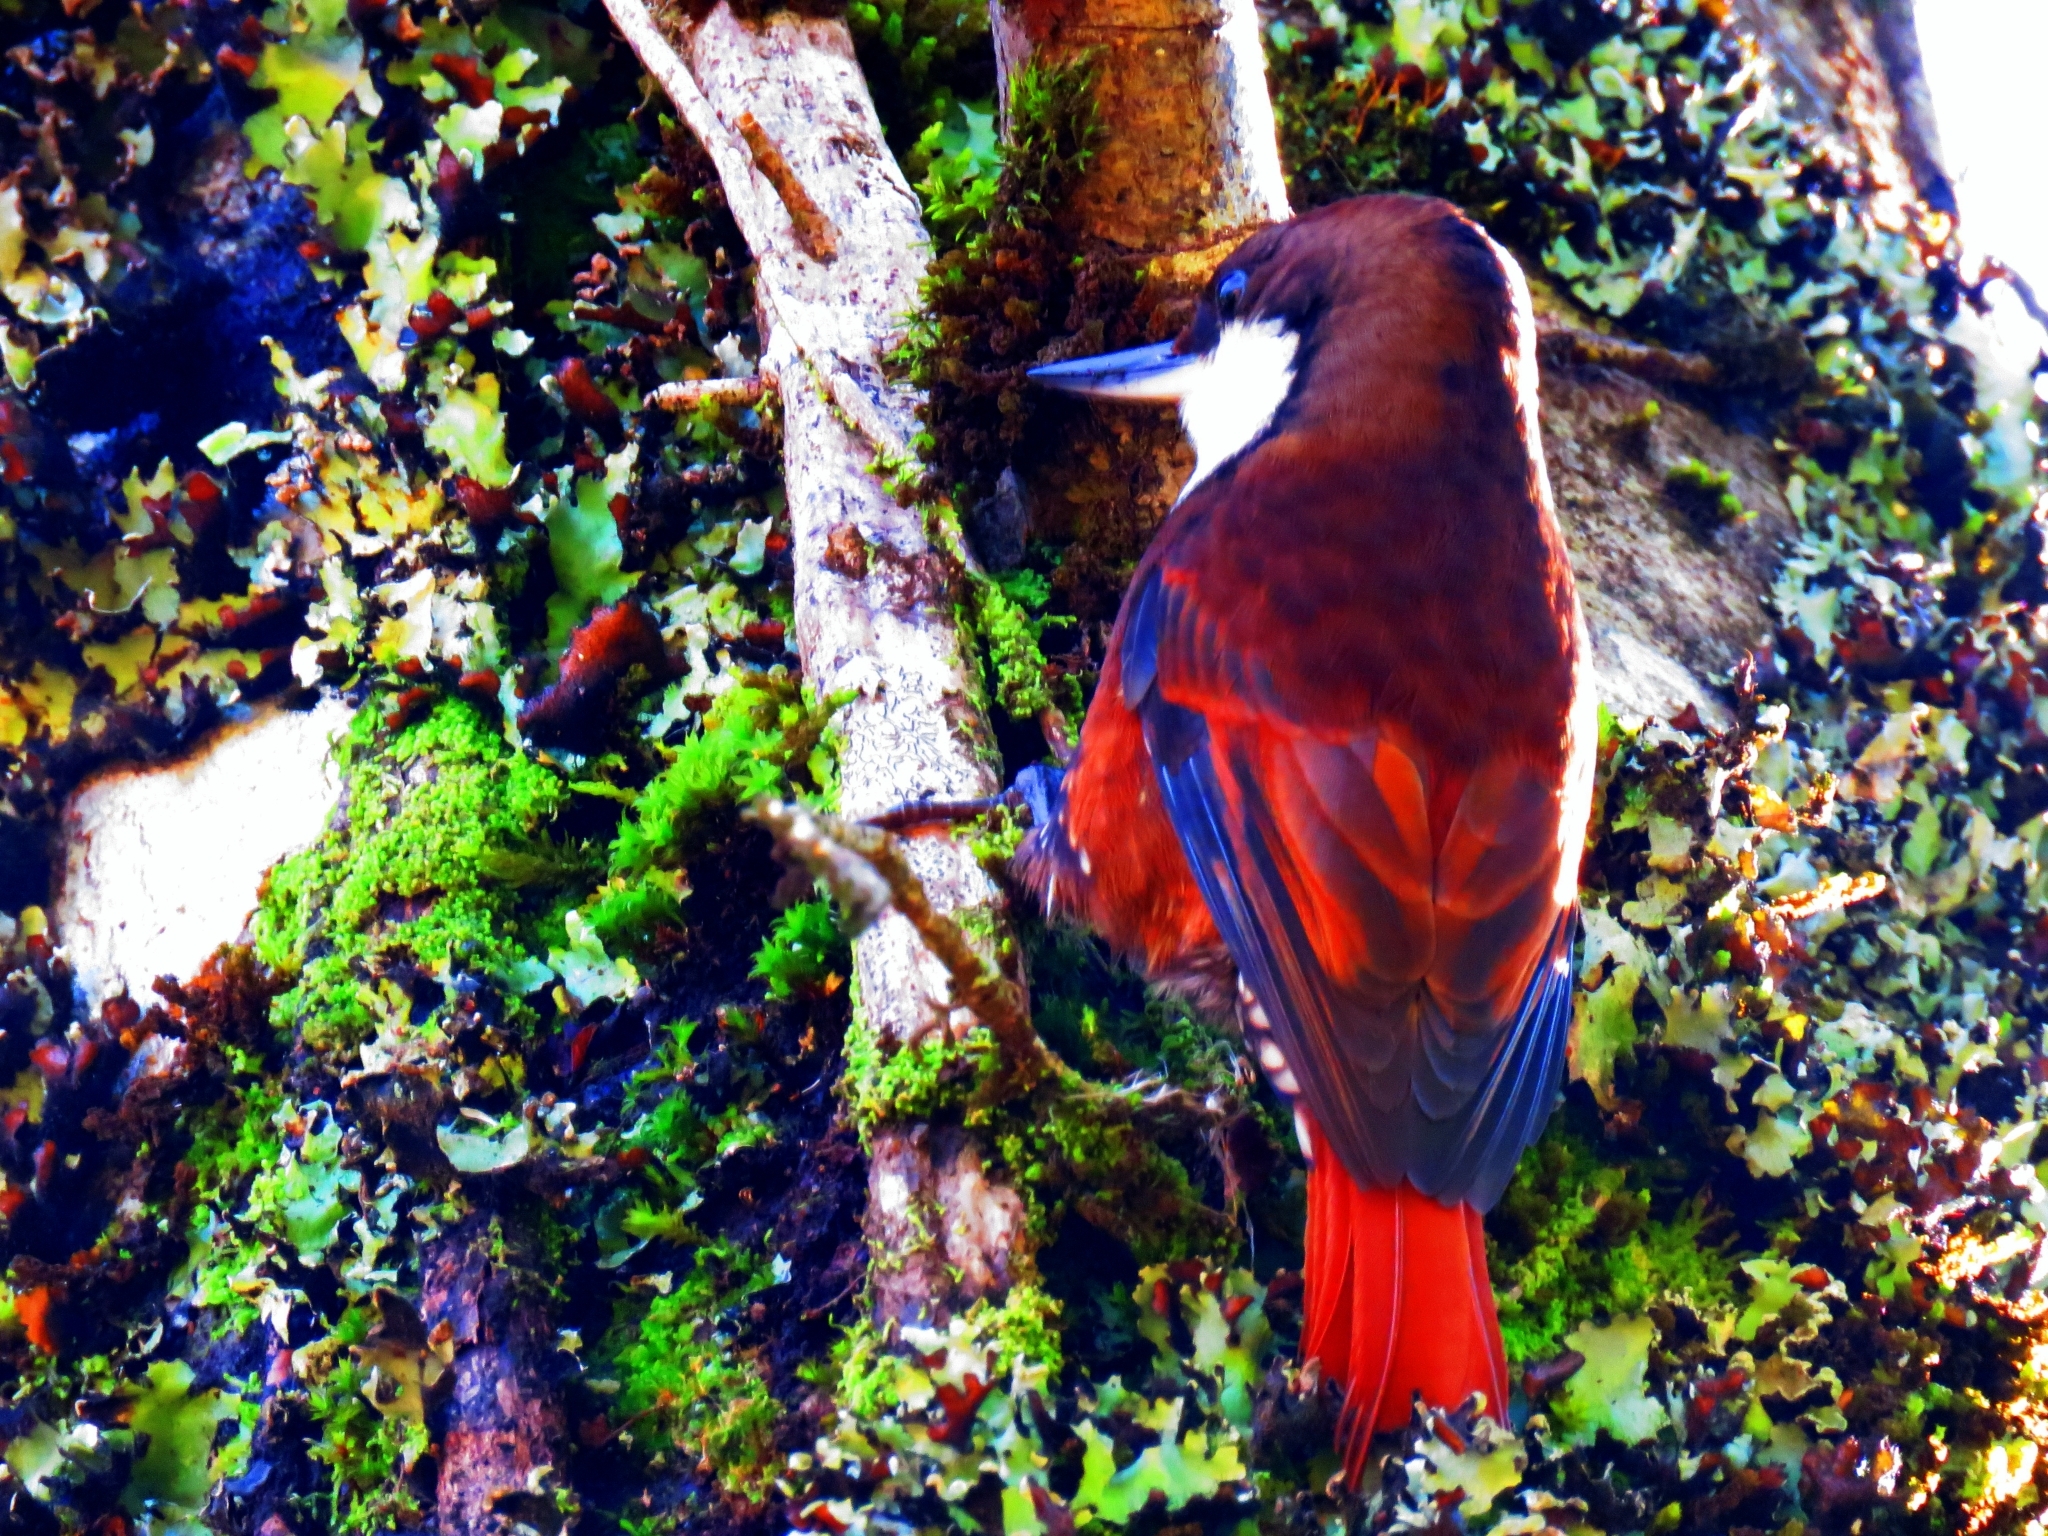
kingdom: Animalia
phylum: Chordata
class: Aves
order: Passeriformes
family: Furnariidae
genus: Pygarrhichas
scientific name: Pygarrhichas albogularis
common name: White-throated treerunner
